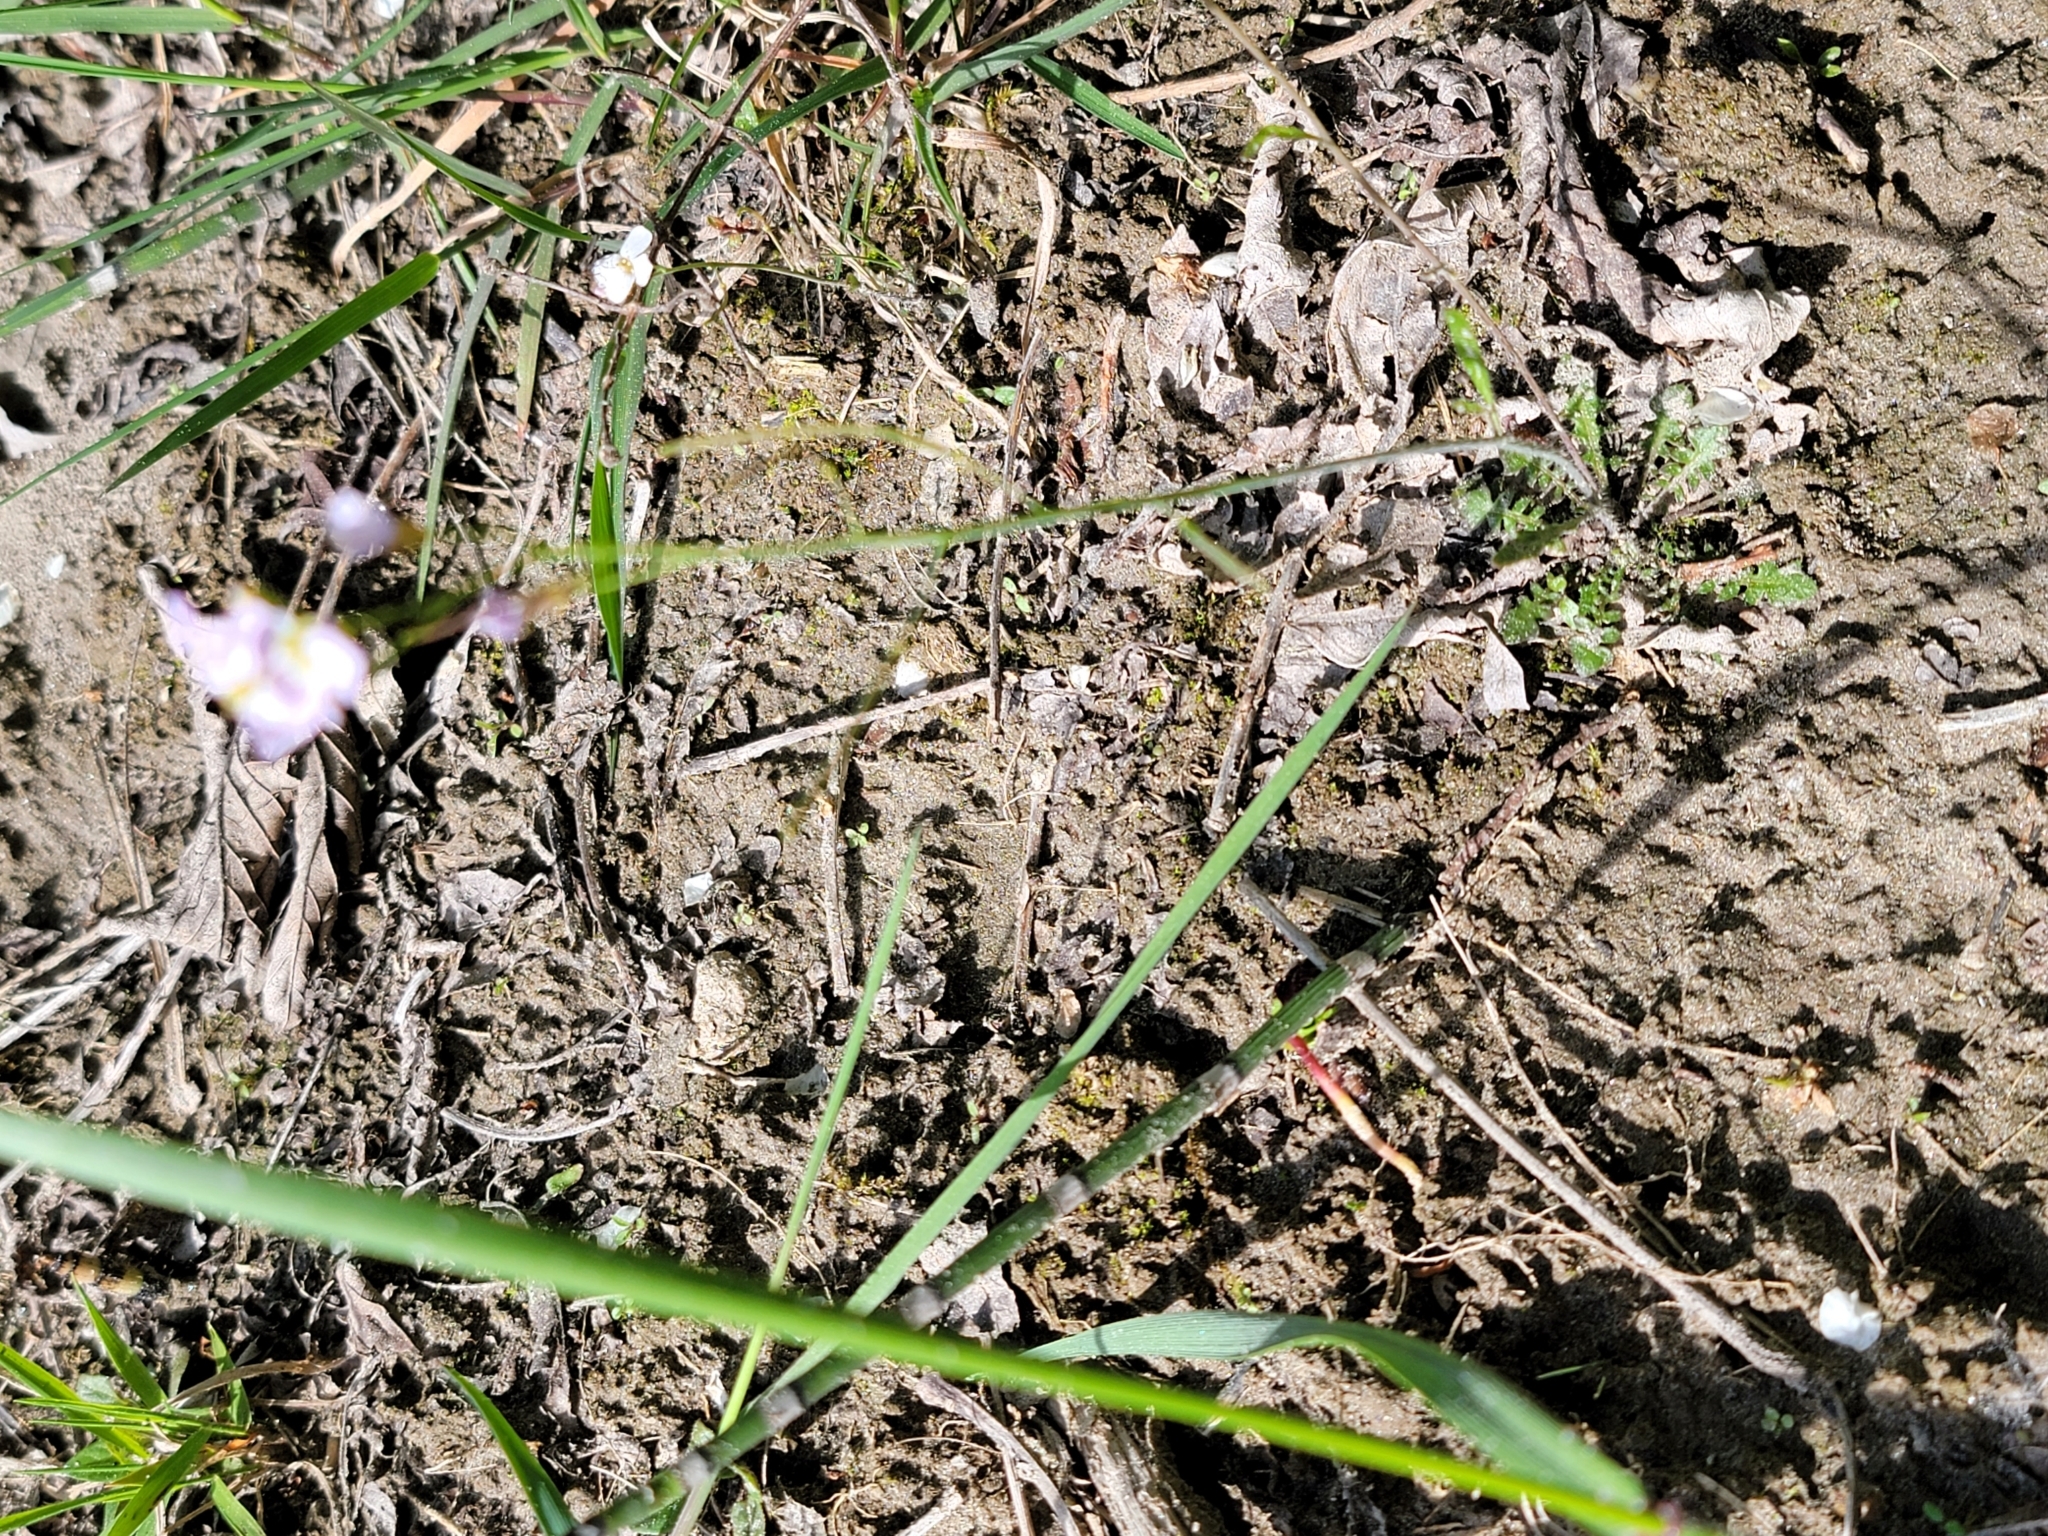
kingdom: Plantae
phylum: Tracheophyta
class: Magnoliopsida
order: Brassicales
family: Brassicaceae
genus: Arabidopsis
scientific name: Arabidopsis arenosa
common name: Sand rock-cress
